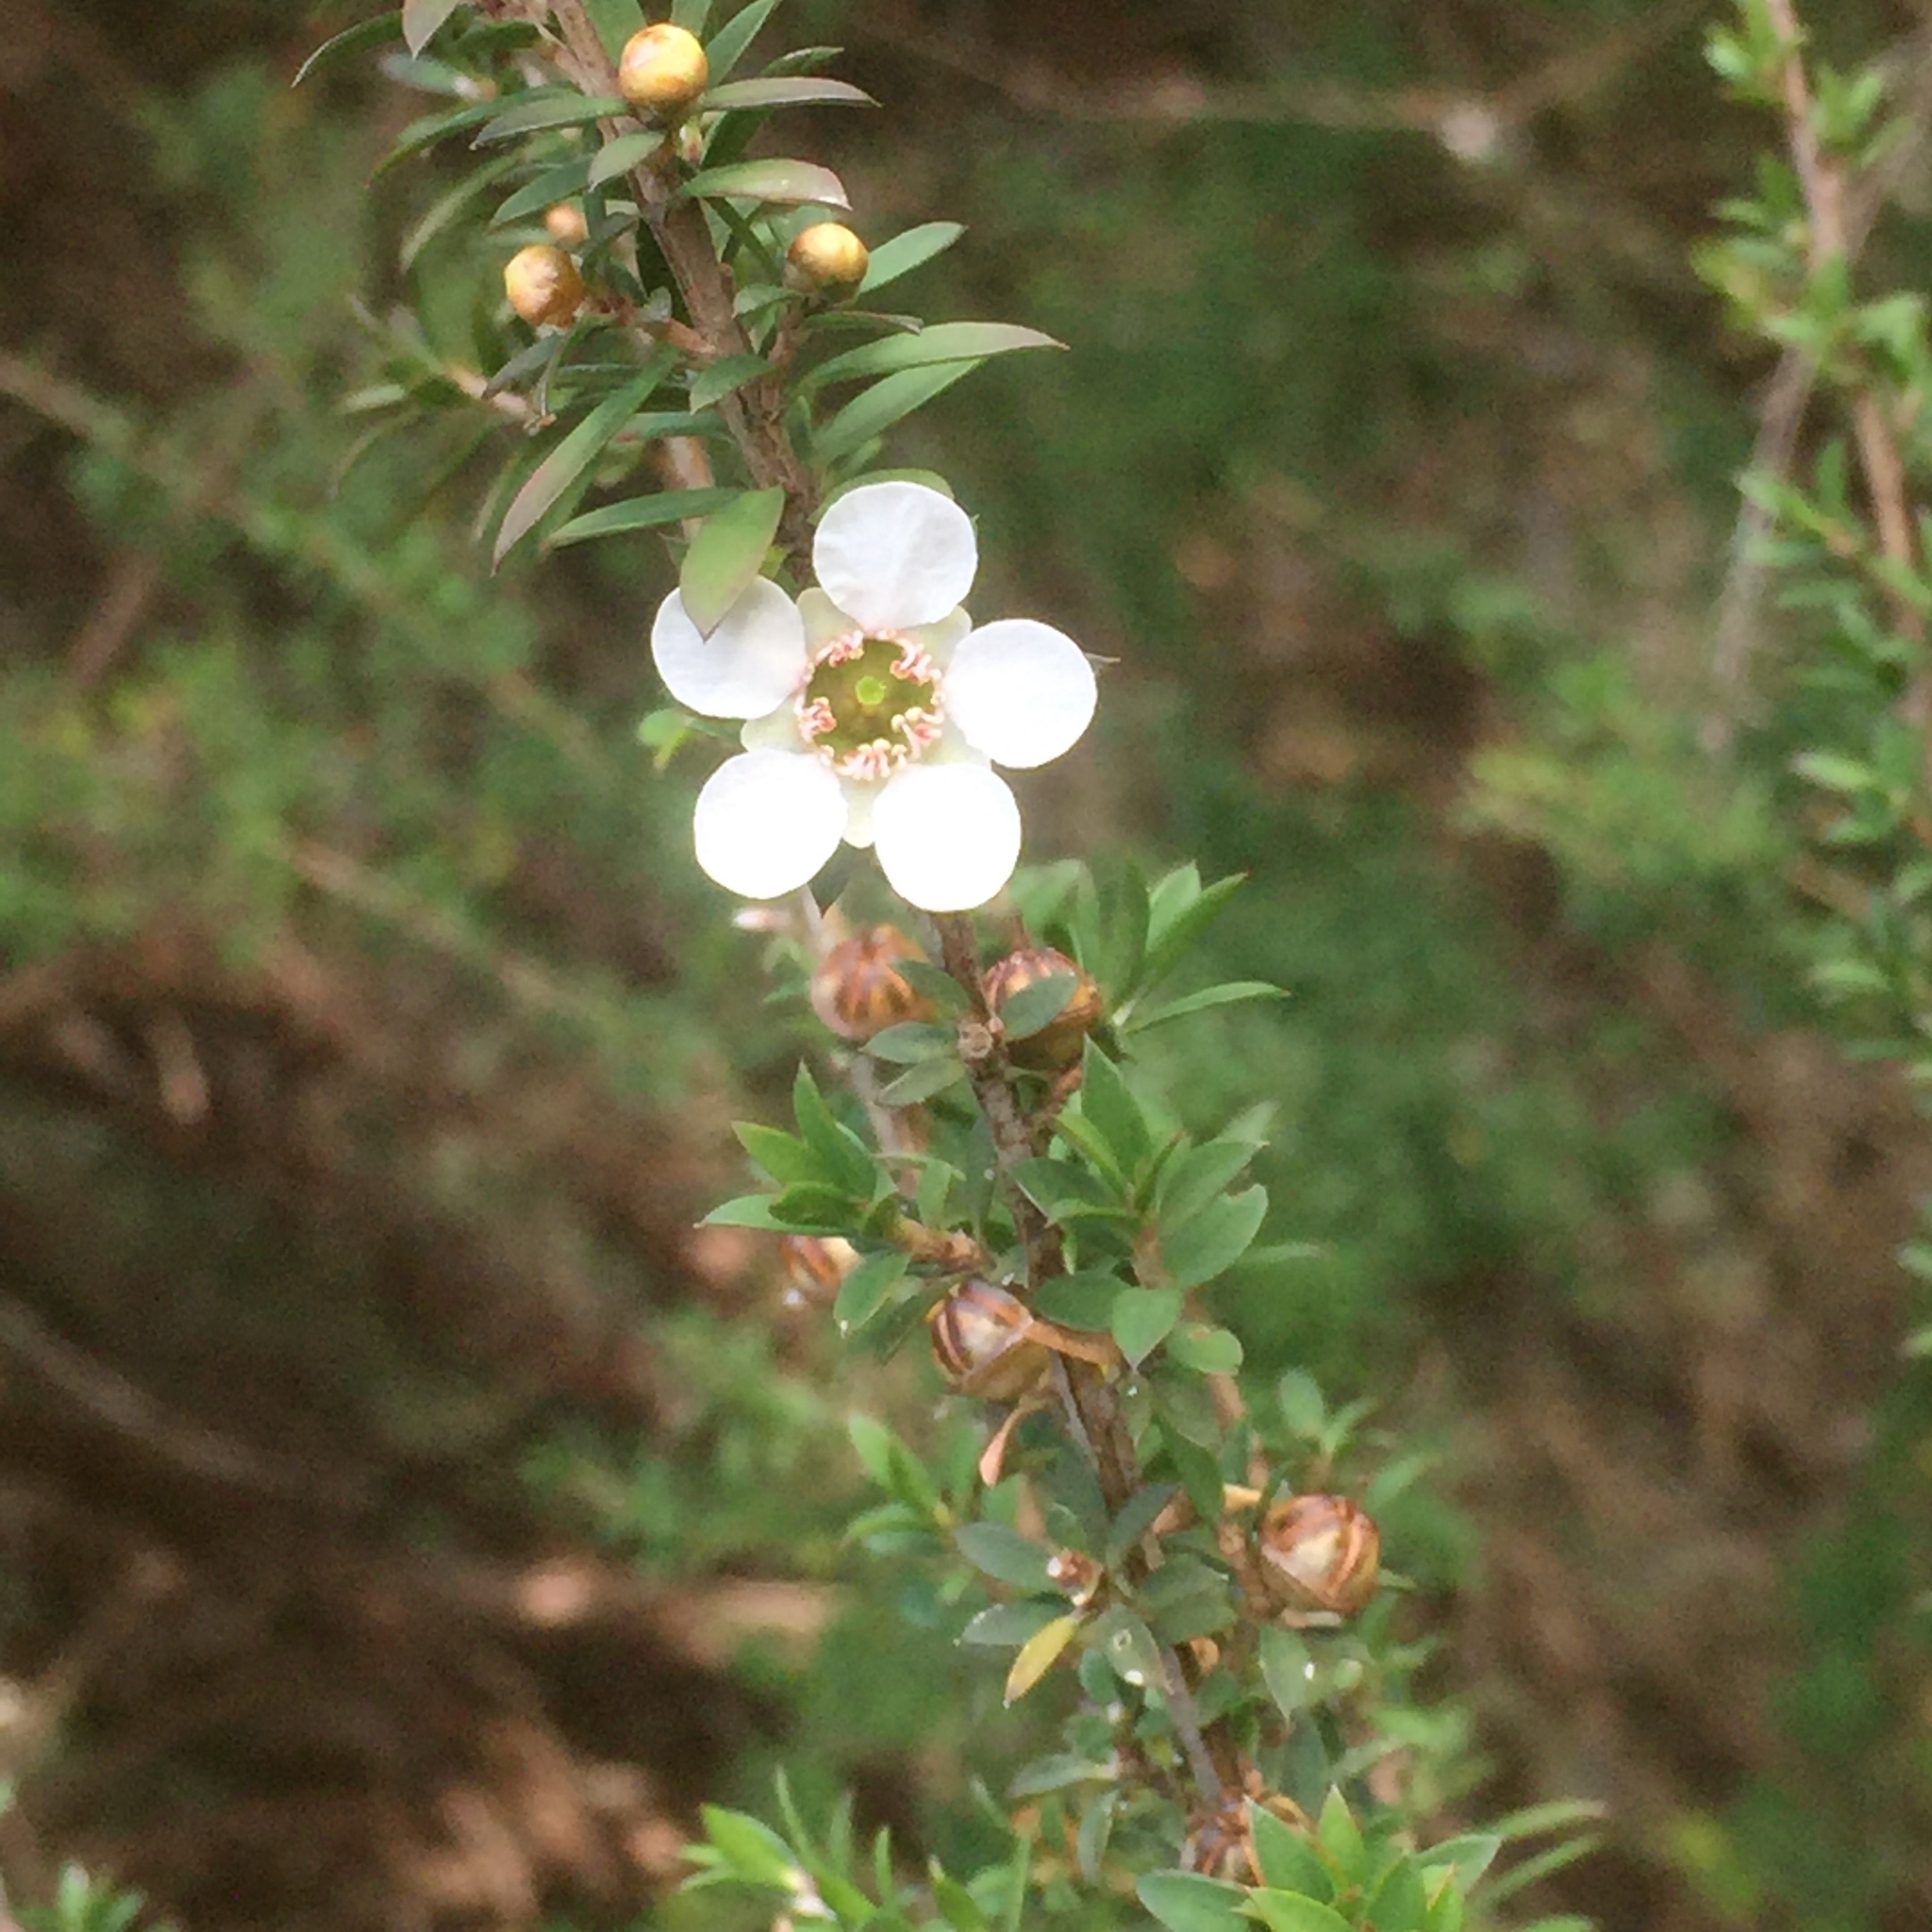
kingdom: Plantae
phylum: Tracheophyta
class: Magnoliopsida
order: Myrtales
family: Myrtaceae
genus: Leptospermum
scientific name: Leptospermum scoparium
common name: Broom tea-tree
